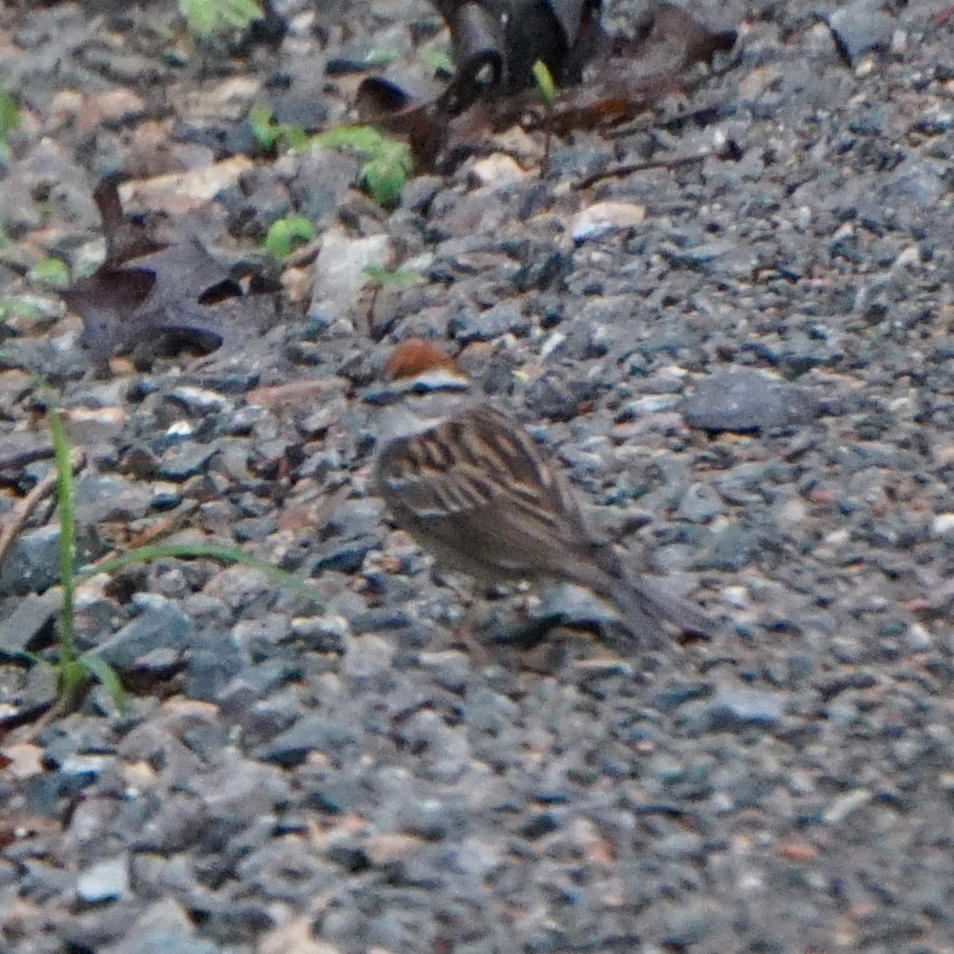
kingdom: Animalia
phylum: Chordata
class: Aves
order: Passeriformes
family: Passerellidae
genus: Spizella
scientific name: Spizella passerina
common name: Chipping sparrow
